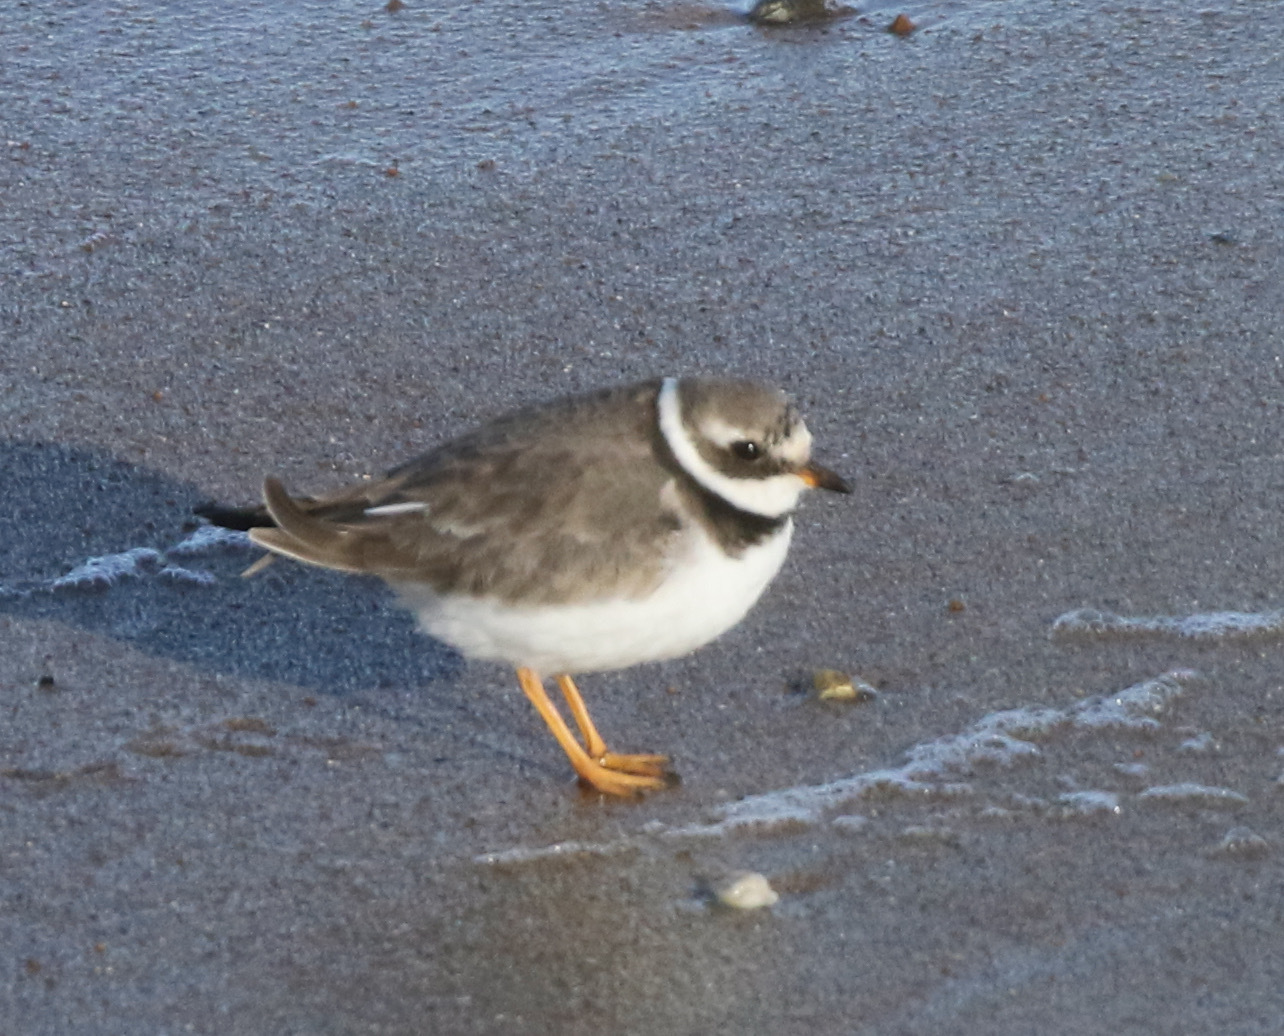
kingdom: Animalia
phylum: Chordata
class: Aves
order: Charadriiformes
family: Charadriidae
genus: Charadrius
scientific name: Charadrius hiaticula
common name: Common ringed plover
